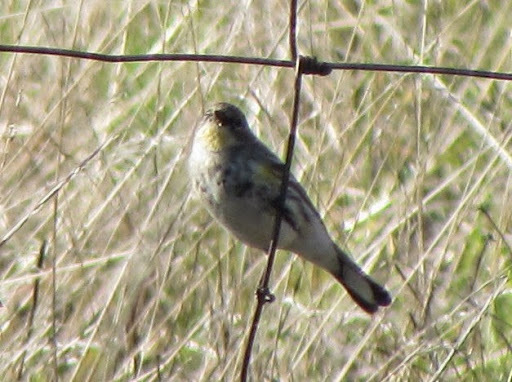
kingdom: Animalia
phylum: Chordata
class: Aves
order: Passeriformes
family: Parulidae
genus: Setophaga
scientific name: Setophaga coronata
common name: Myrtle warbler
